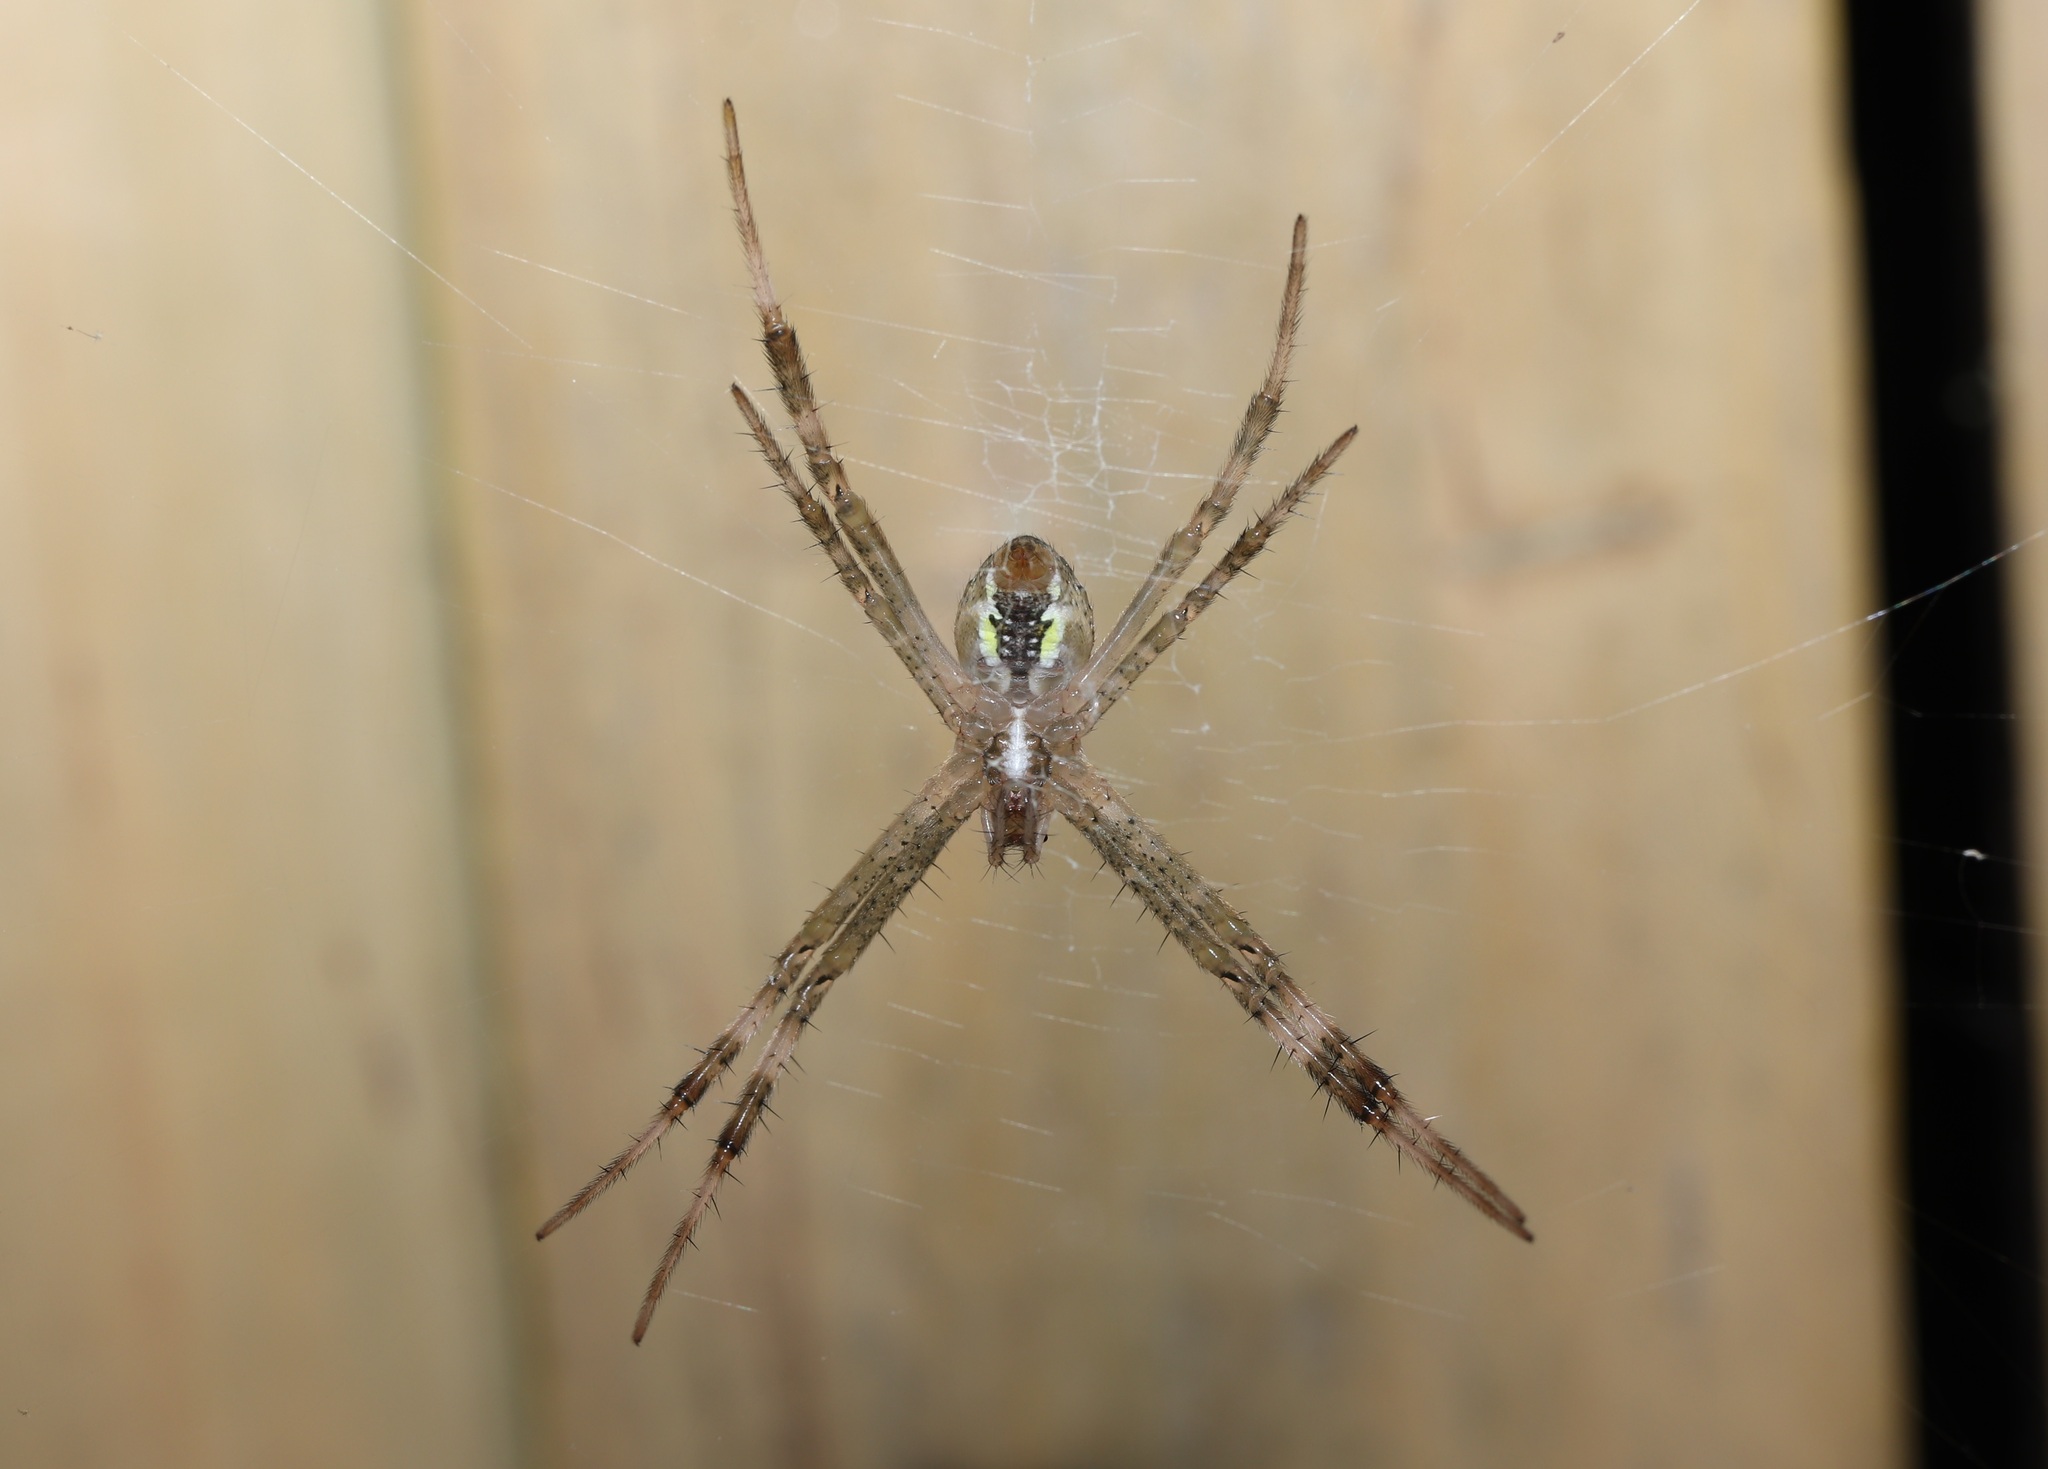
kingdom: Animalia
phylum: Arthropoda
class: Arachnida
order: Araneae
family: Araneidae
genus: Argiope
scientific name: Argiope bruennichi
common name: Wasp spider
